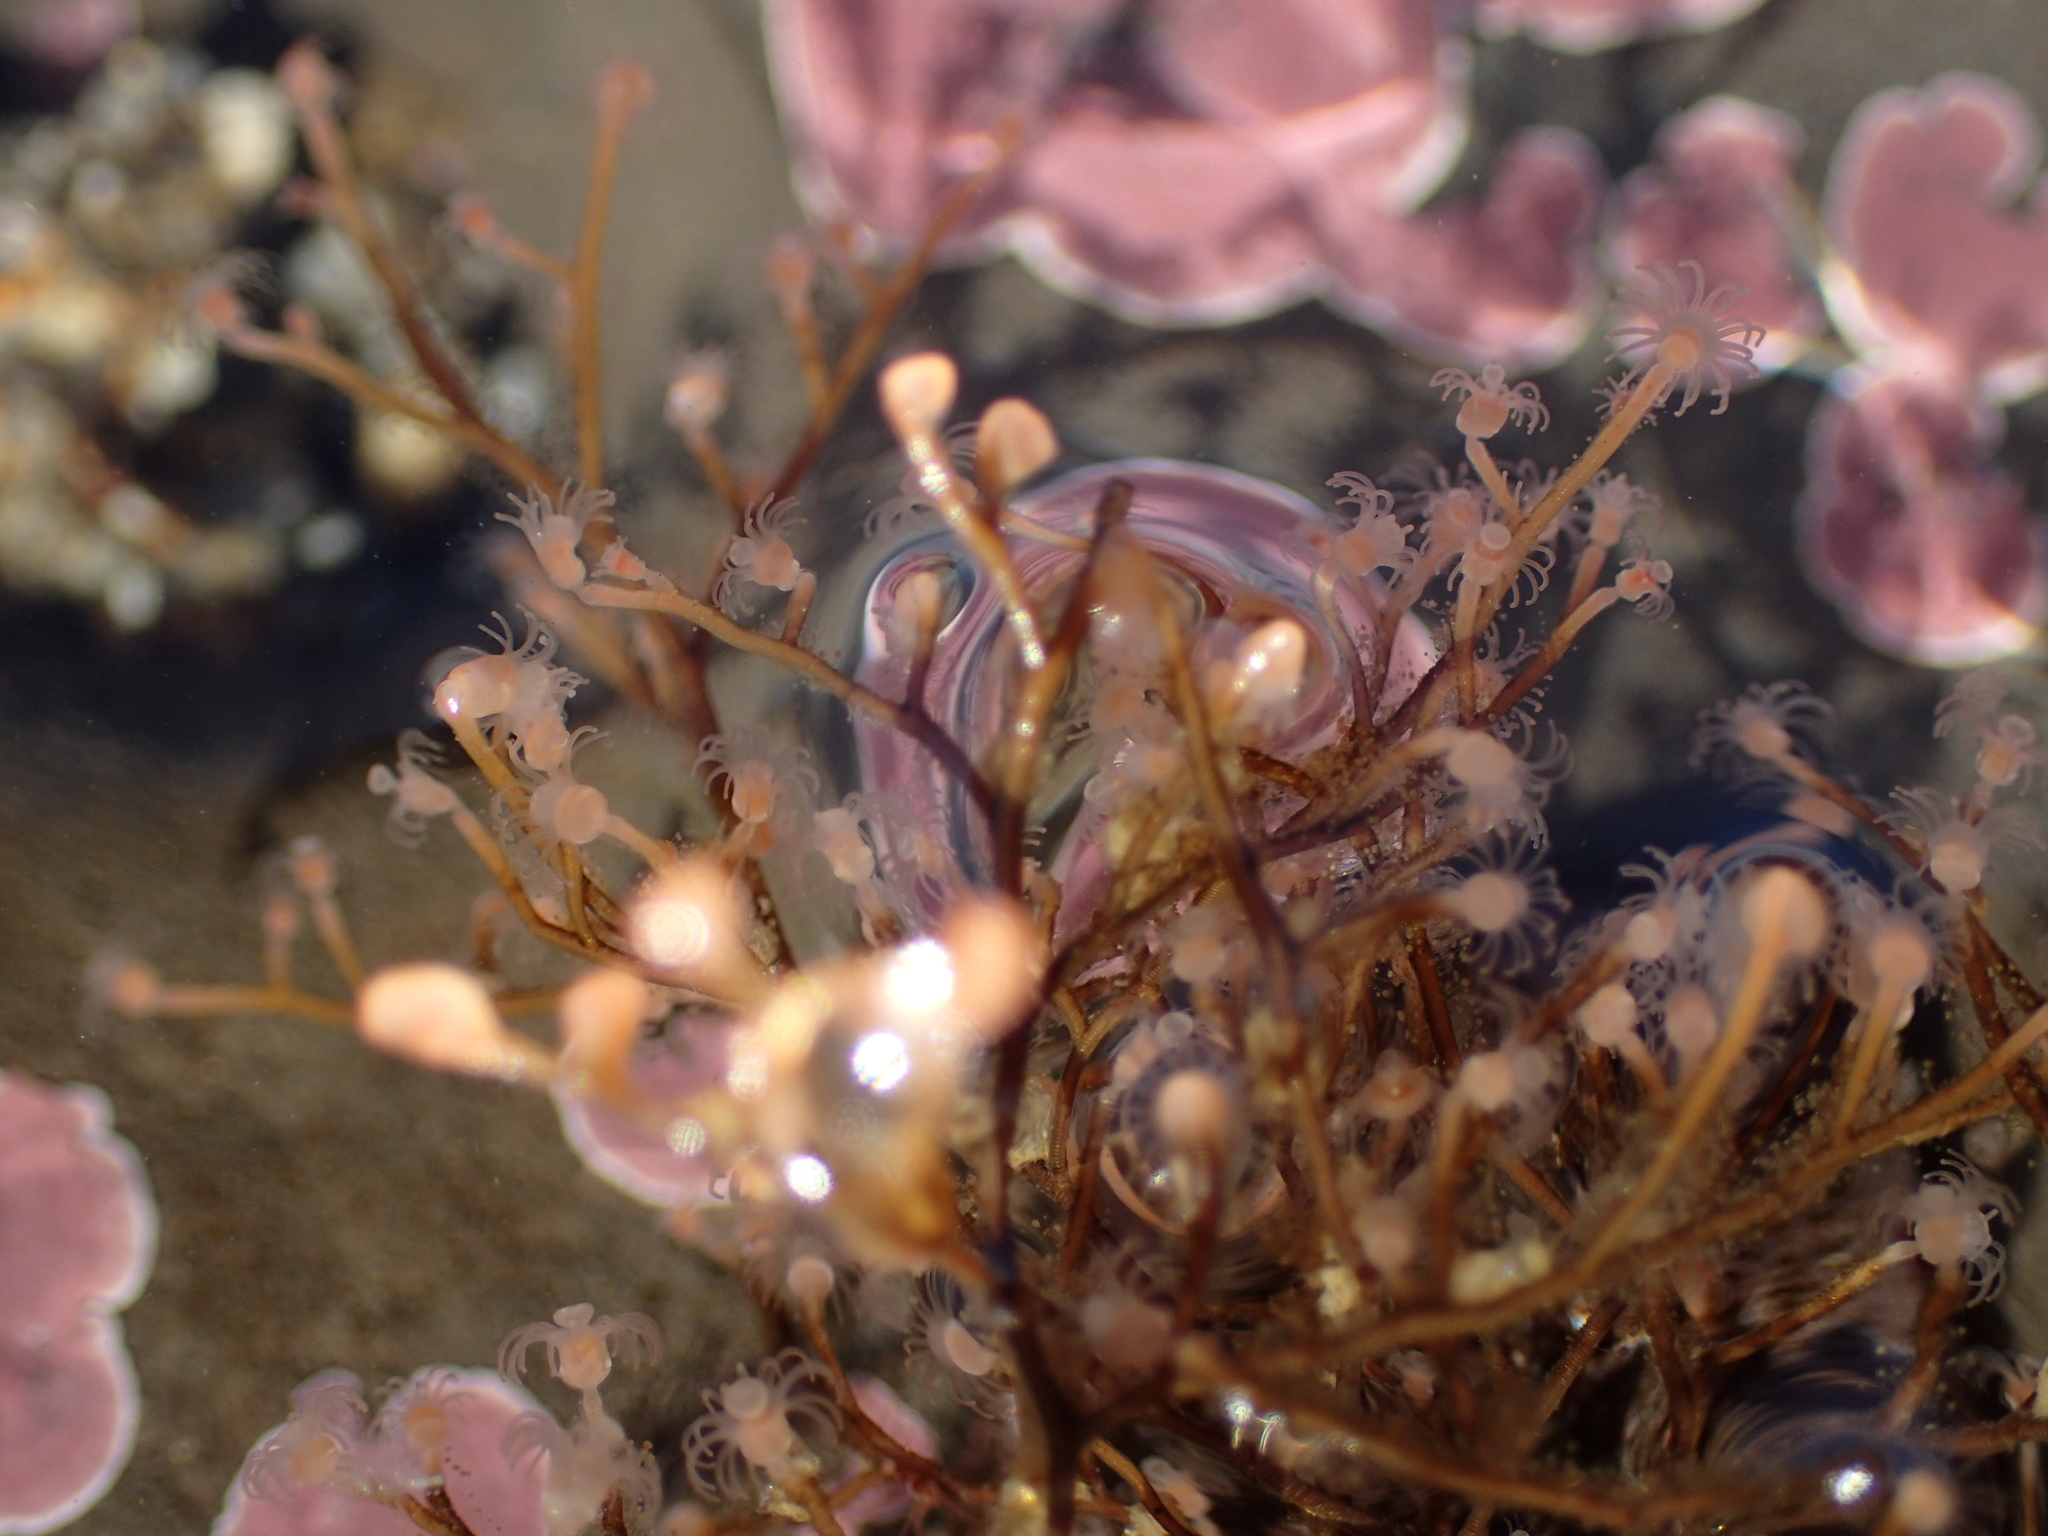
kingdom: Animalia
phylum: Cnidaria
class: Hydrozoa
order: Anthoathecata
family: Eudendriidae
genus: Eudendrium
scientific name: Eudendrium californicum
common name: California stickhydroid
